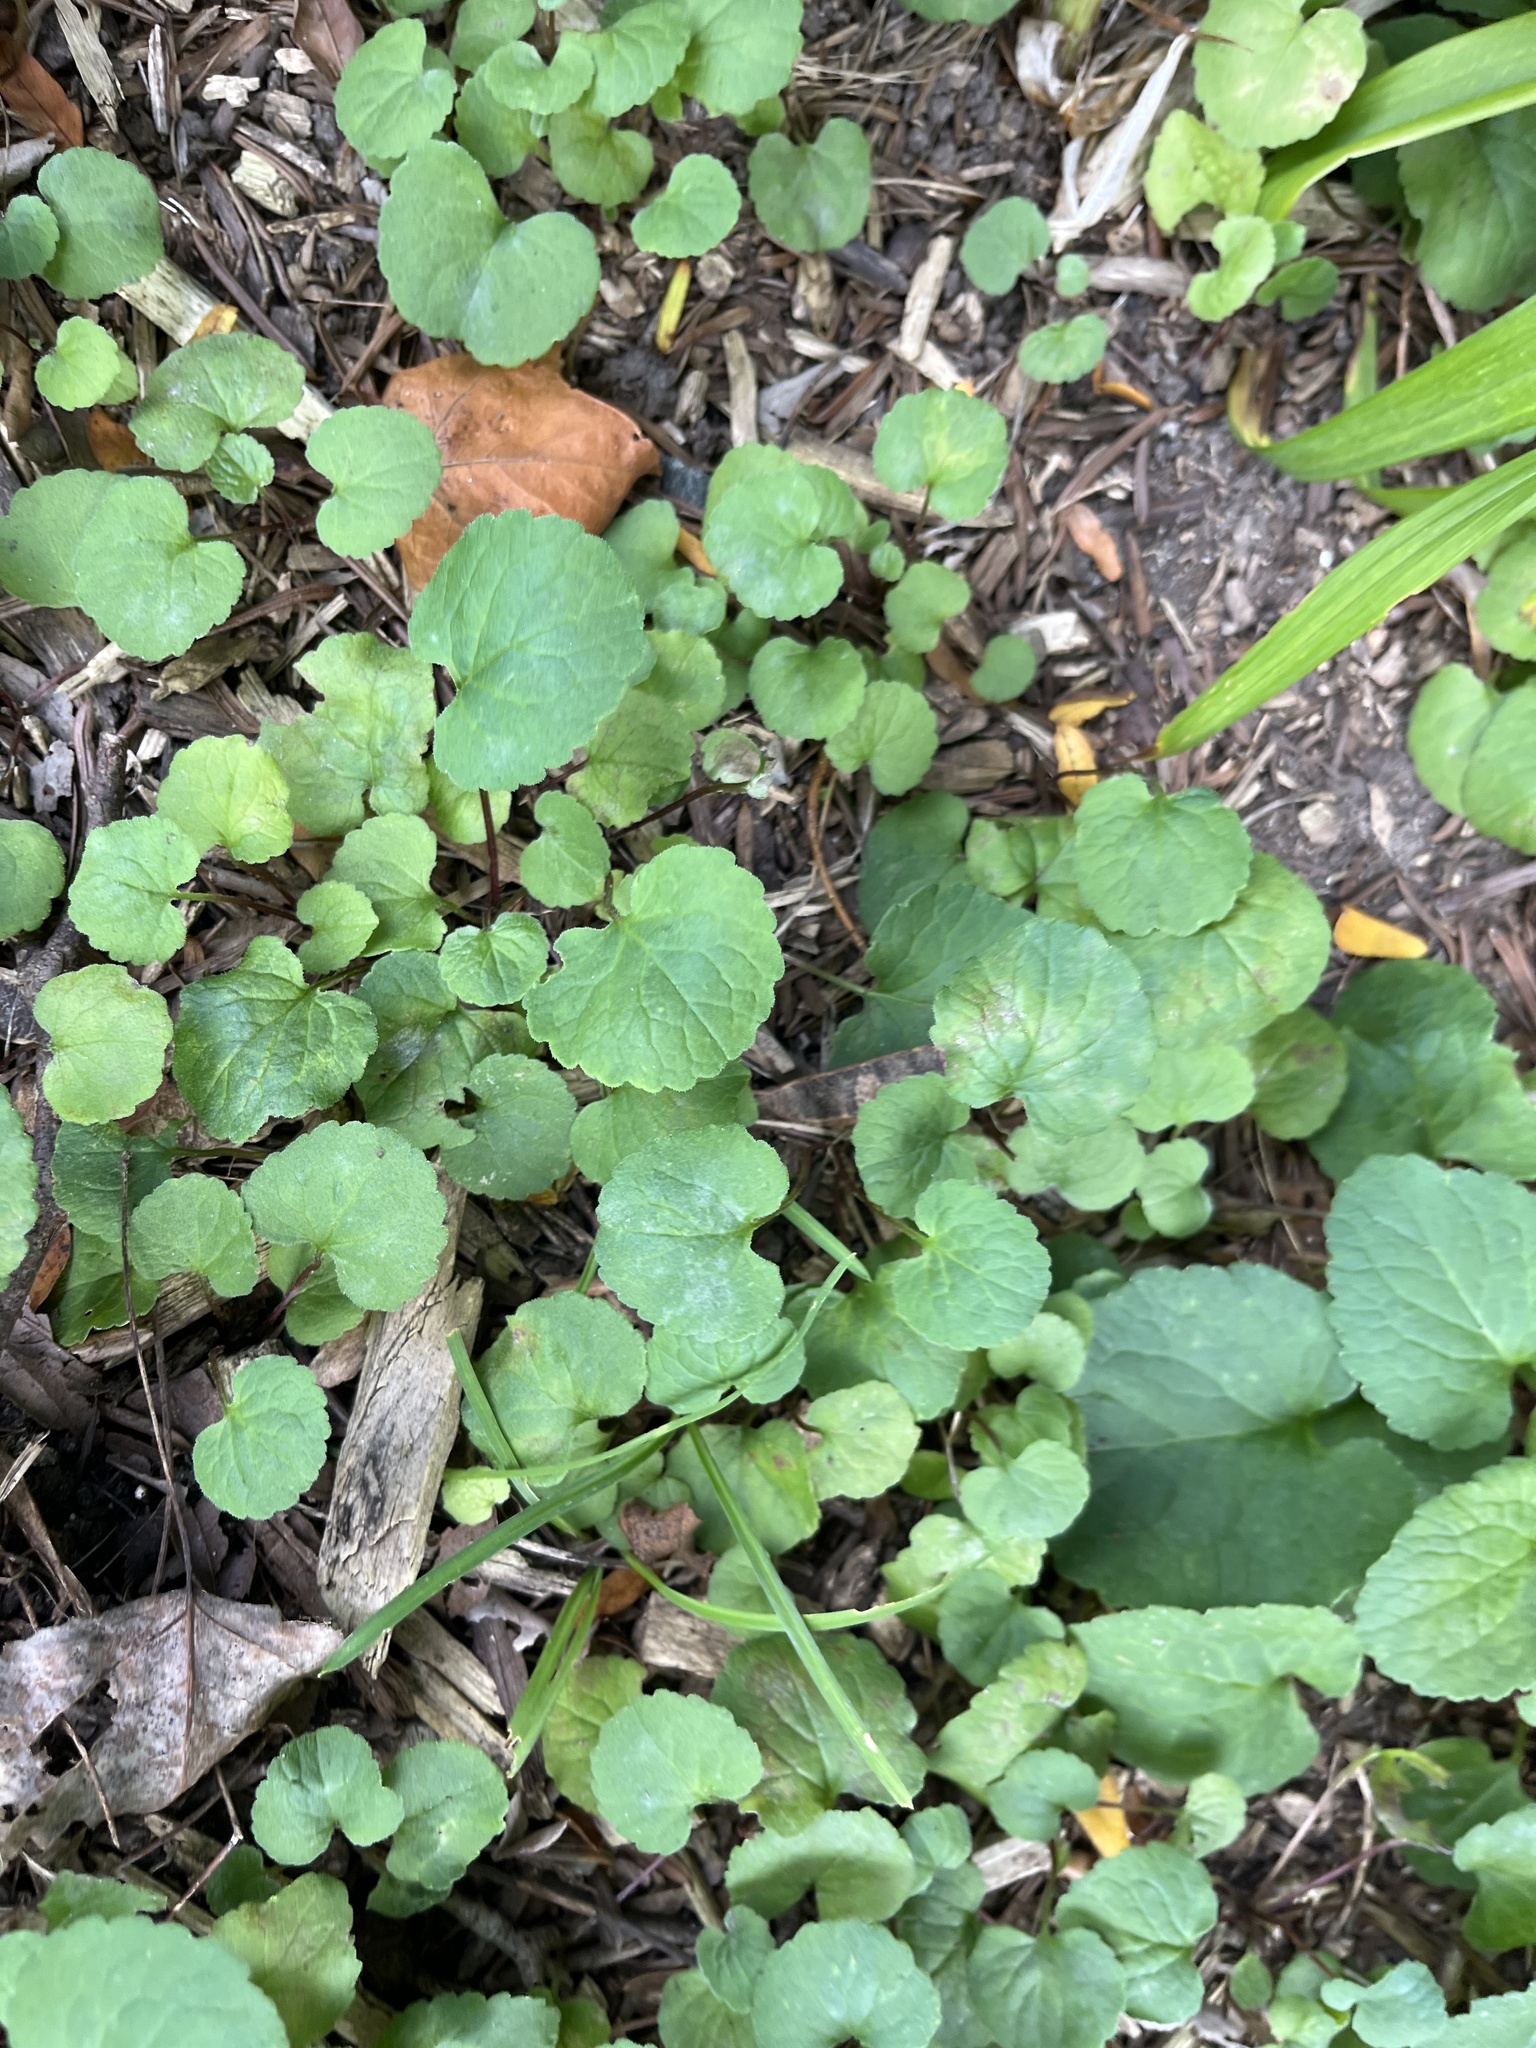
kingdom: Plantae
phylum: Tracheophyta
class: Magnoliopsida
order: Lamiales
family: Lamiaceae
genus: Glechoma
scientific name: Glechoma hederacea
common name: Ground ivy
